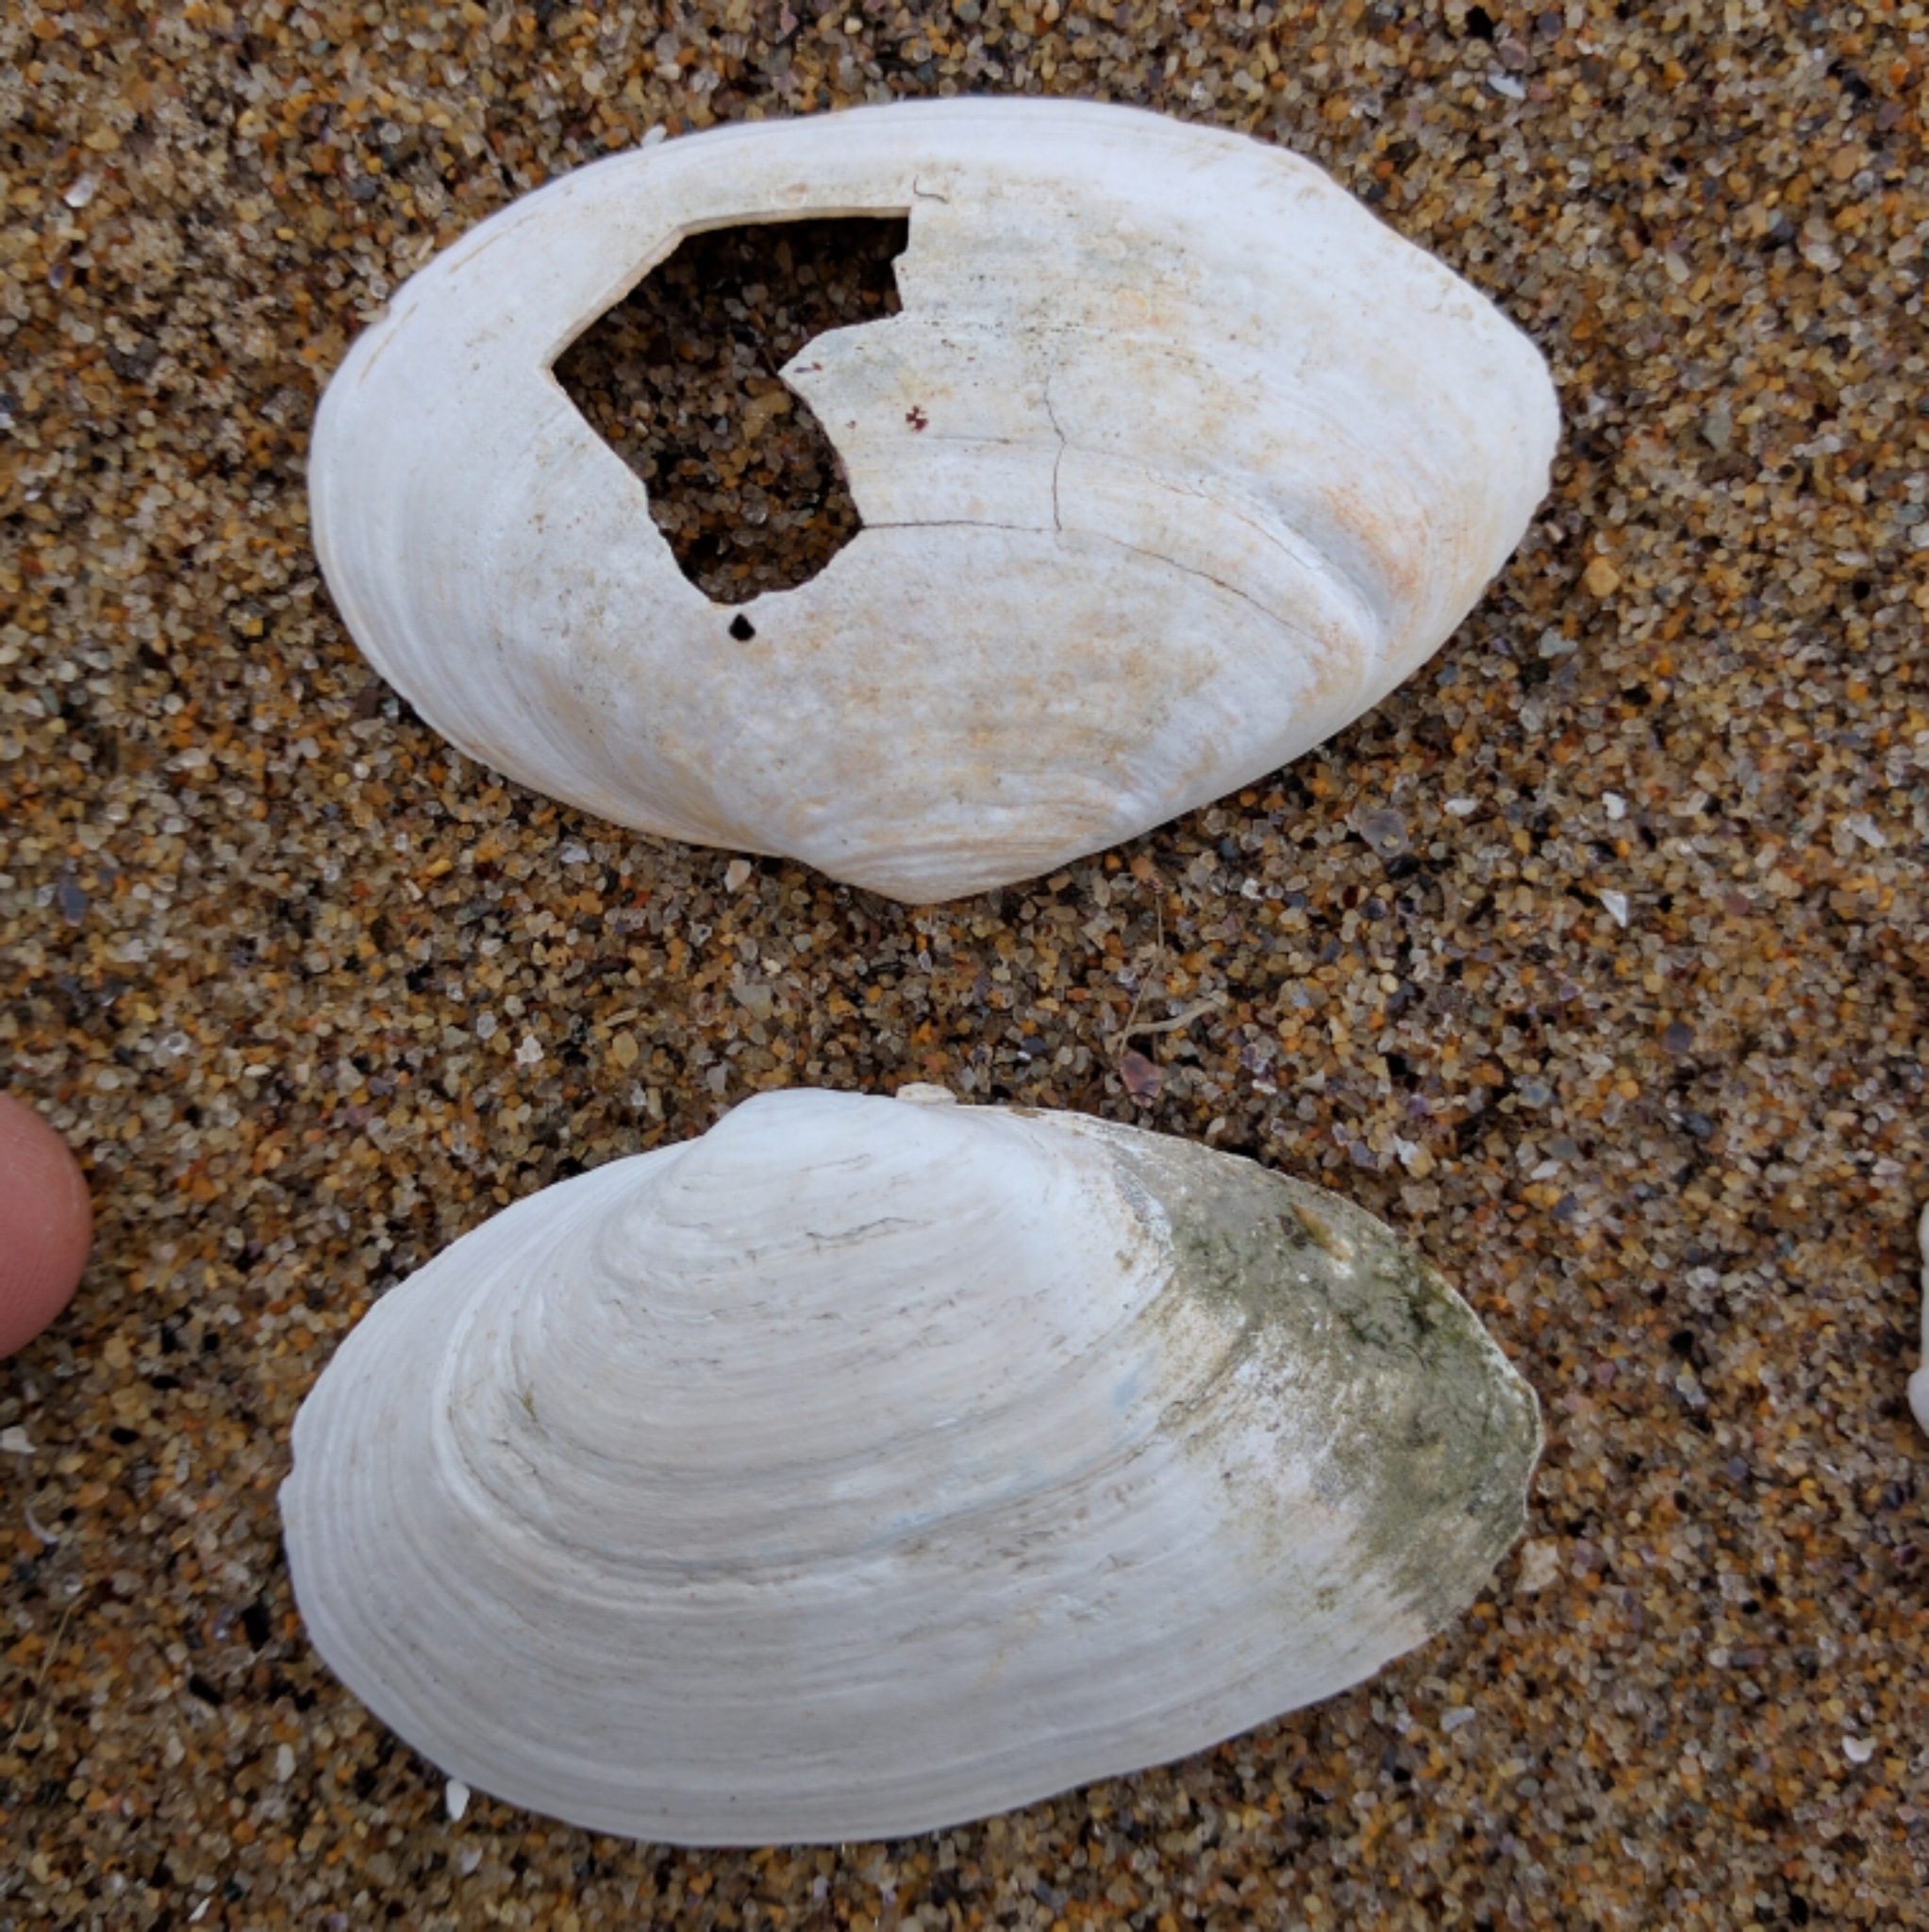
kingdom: Animalia
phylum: Mollusca
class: Bivalvia
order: Myida
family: Myidae
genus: Mya
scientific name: Mya arenaria
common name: Soft-shelled clam
